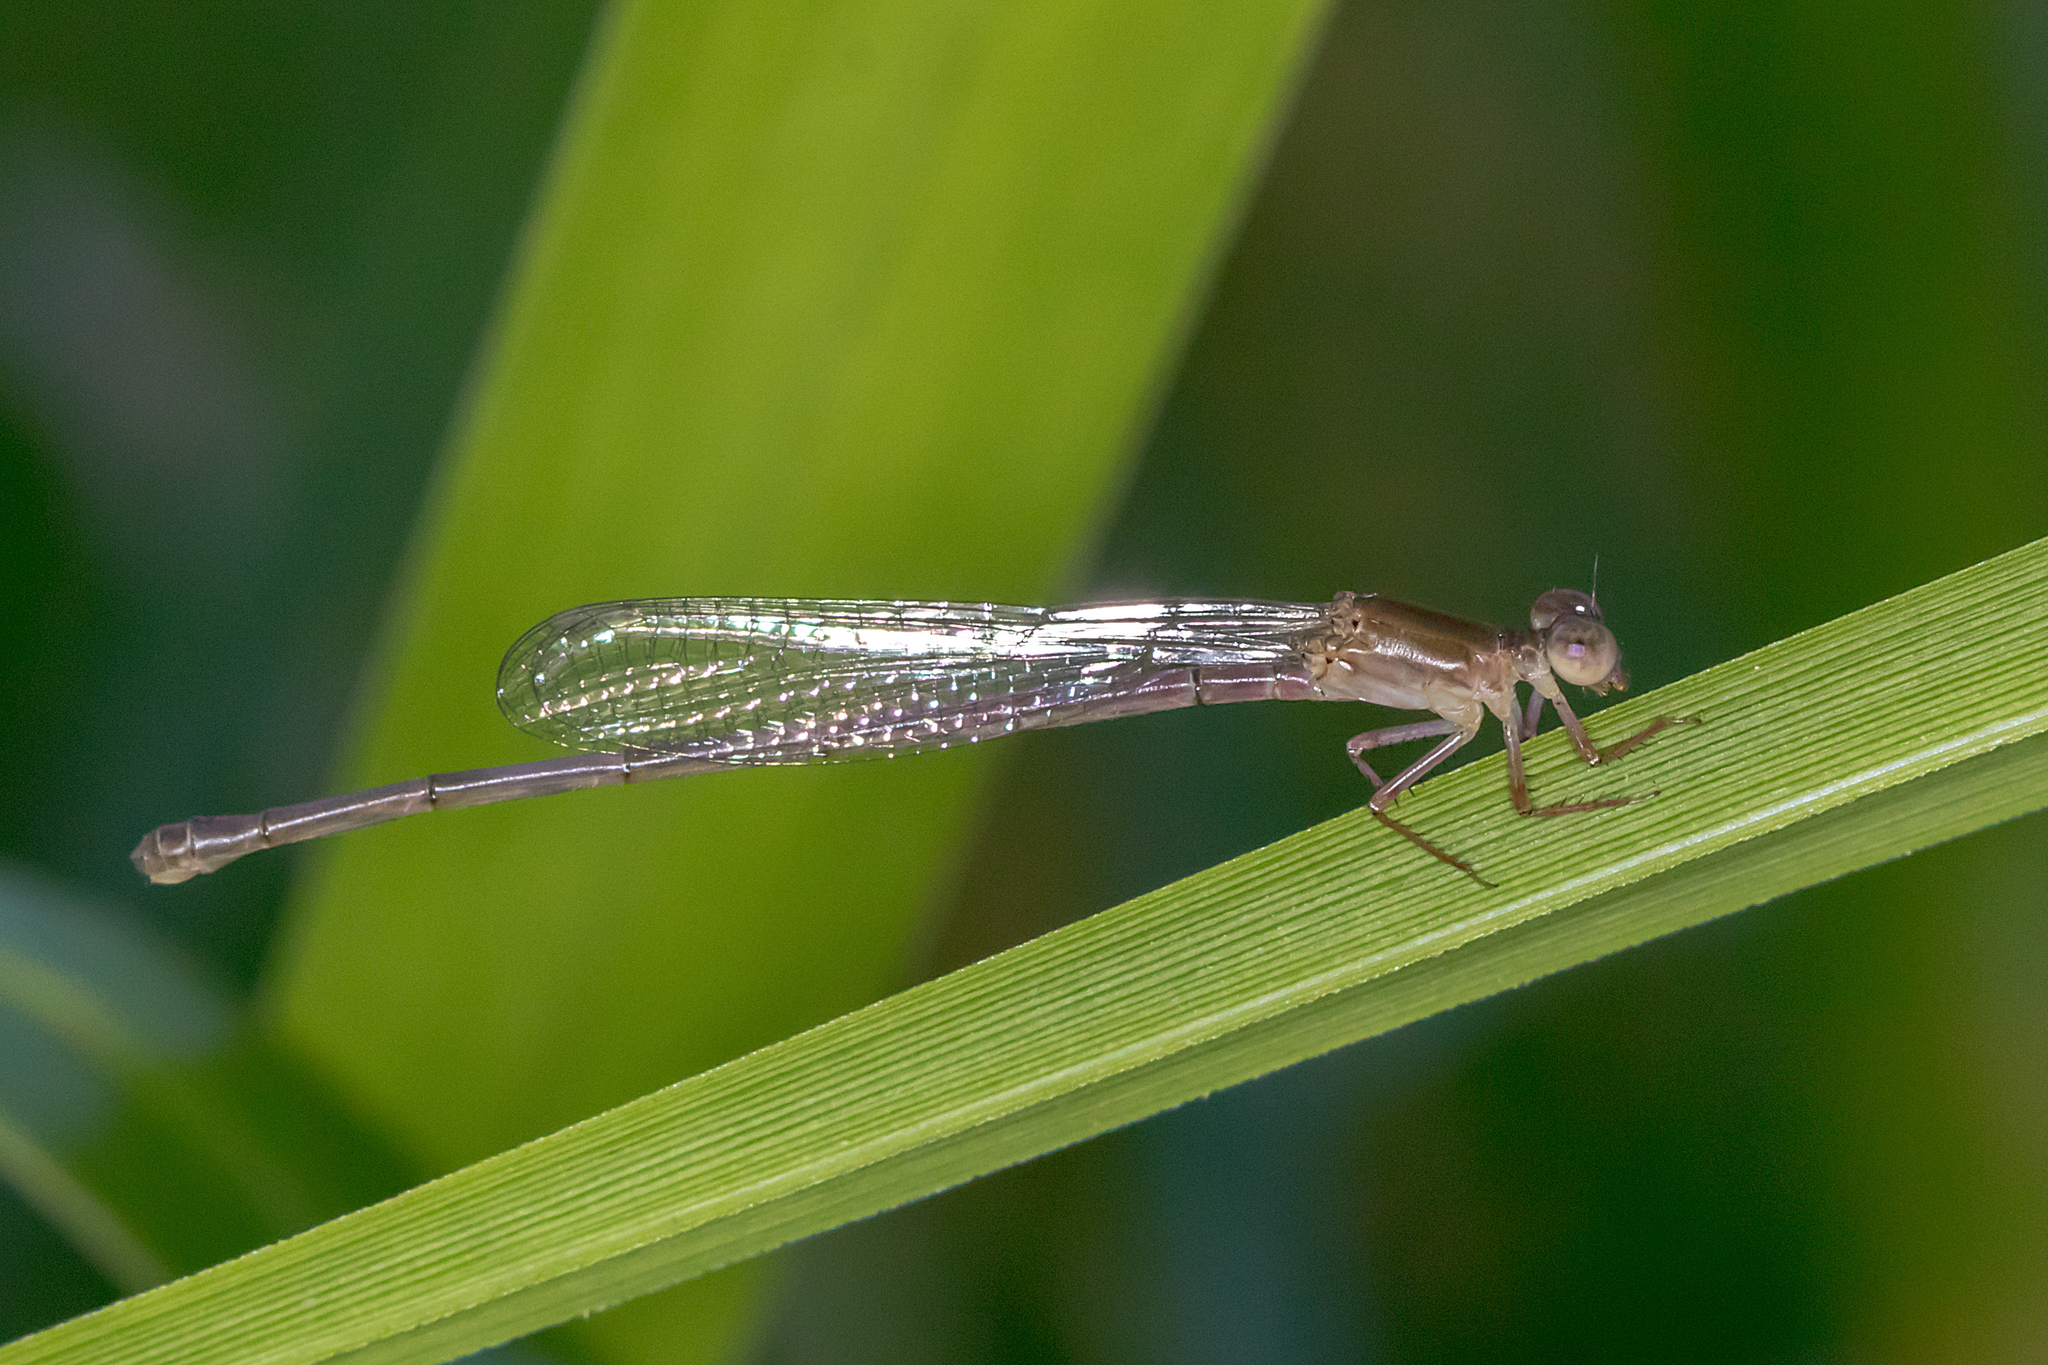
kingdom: Animalia
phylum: Arthropoda
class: Insecta
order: Odonata
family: Coenagrionidae
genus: Ceriagrion
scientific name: Ceriagrion aeruginosum
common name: Redtail
